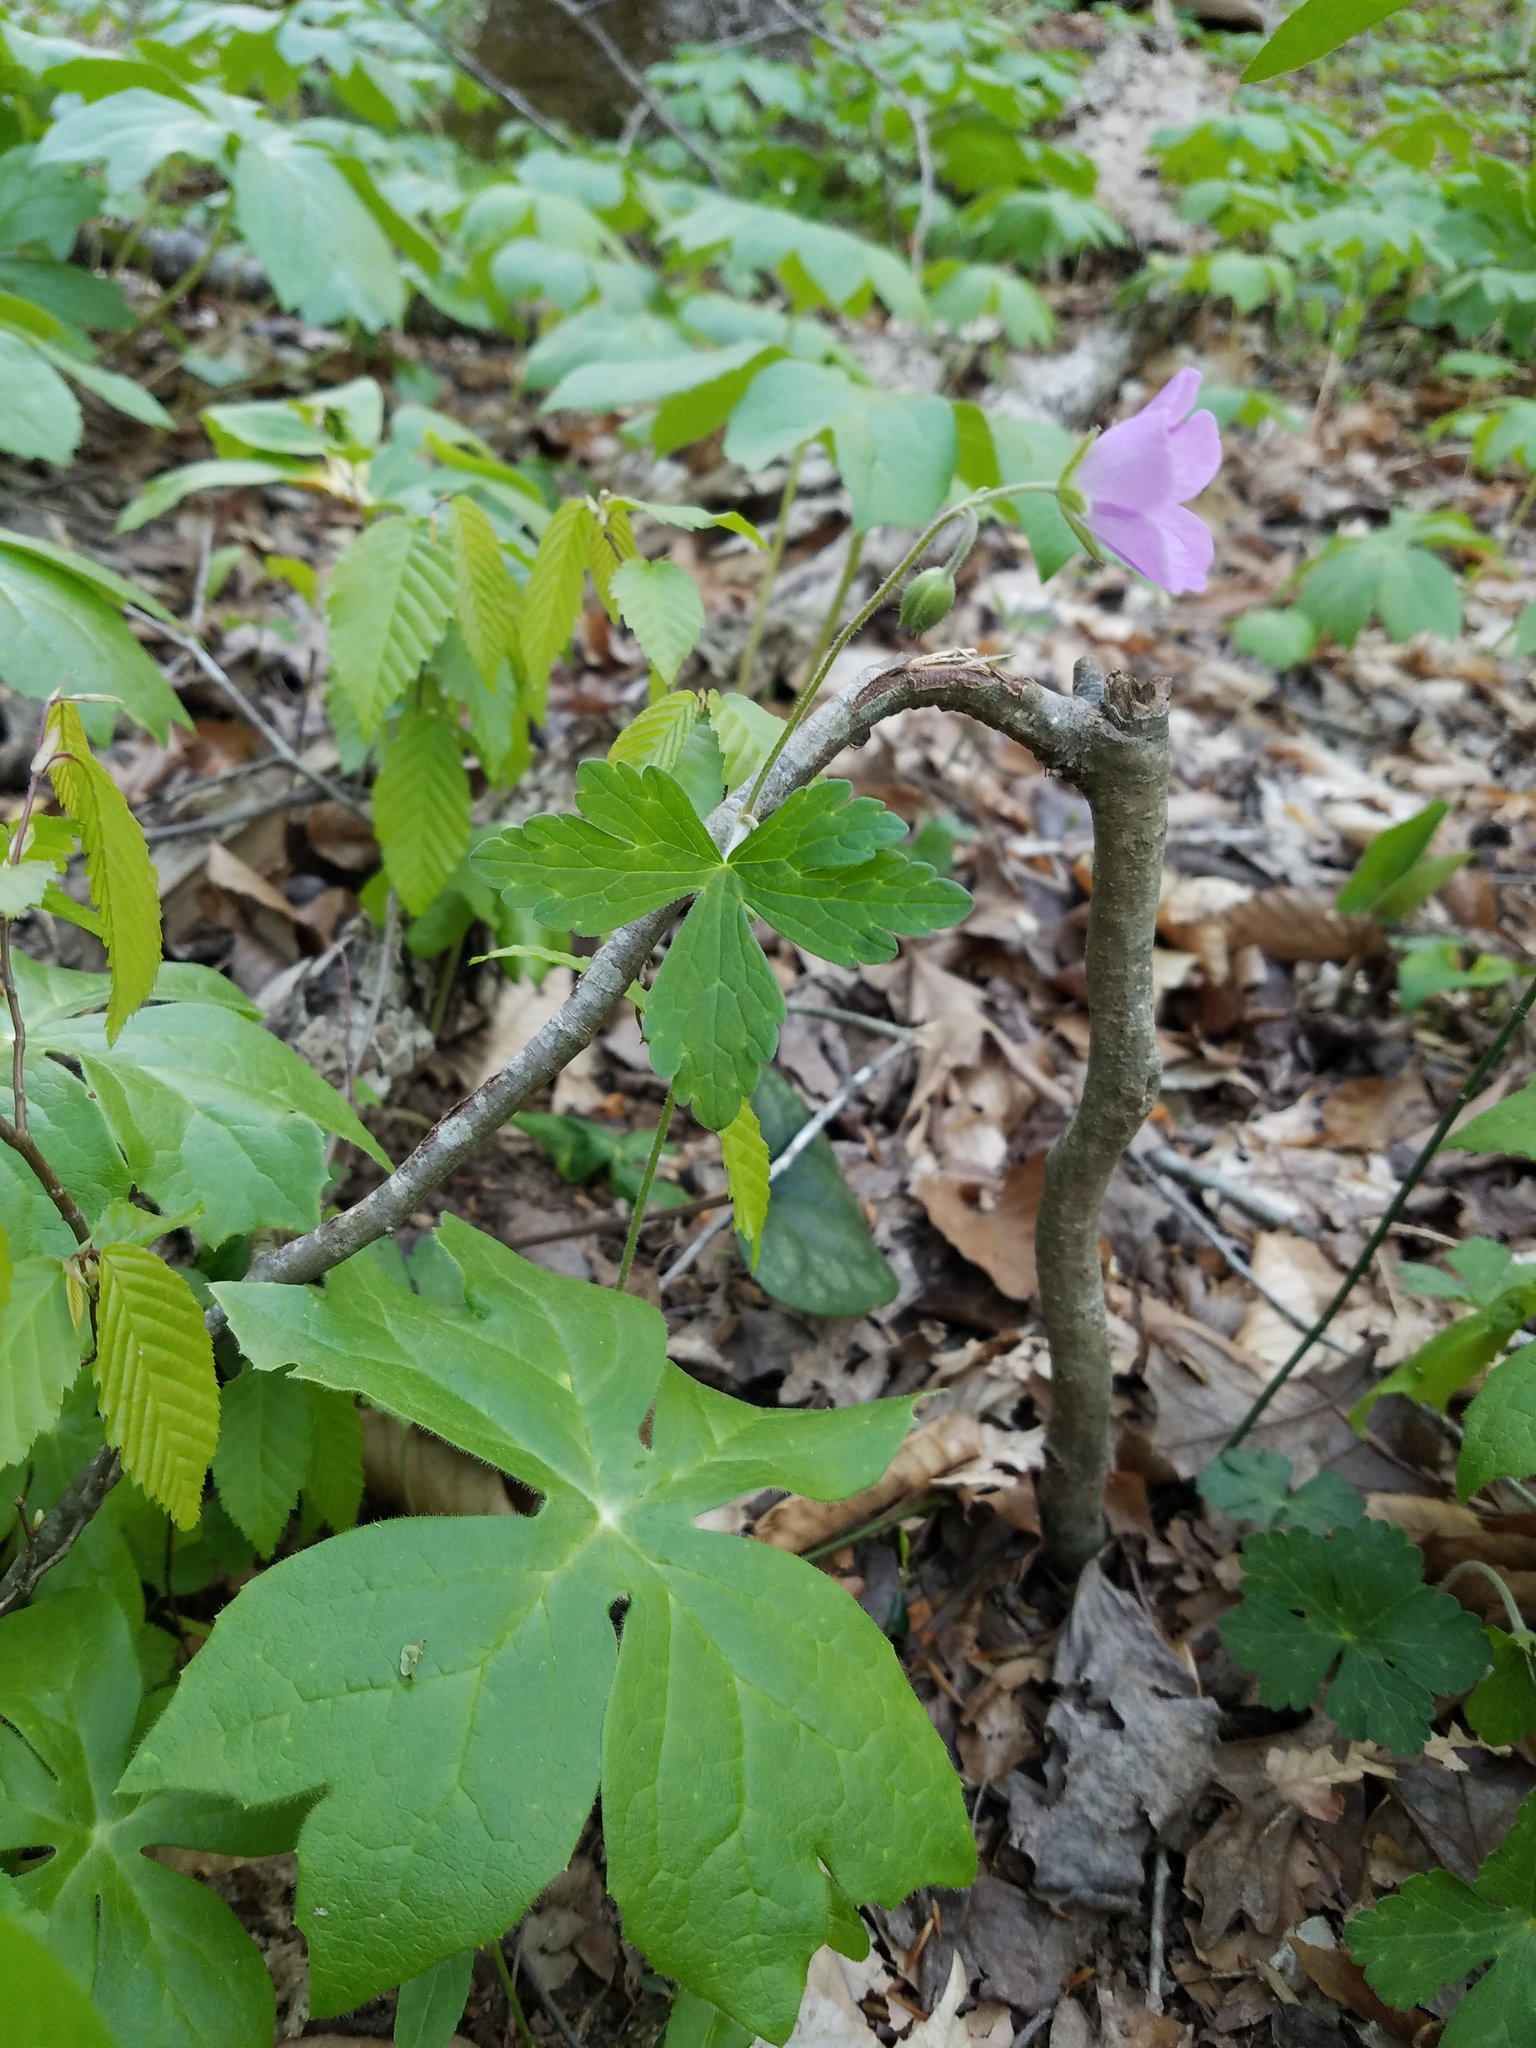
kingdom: Plantae
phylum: Tracheophyta
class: Magnoliopsida
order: Geraniales
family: Geraniaceae
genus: Geranium
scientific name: Geranium maculatum
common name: Spotted geranium
